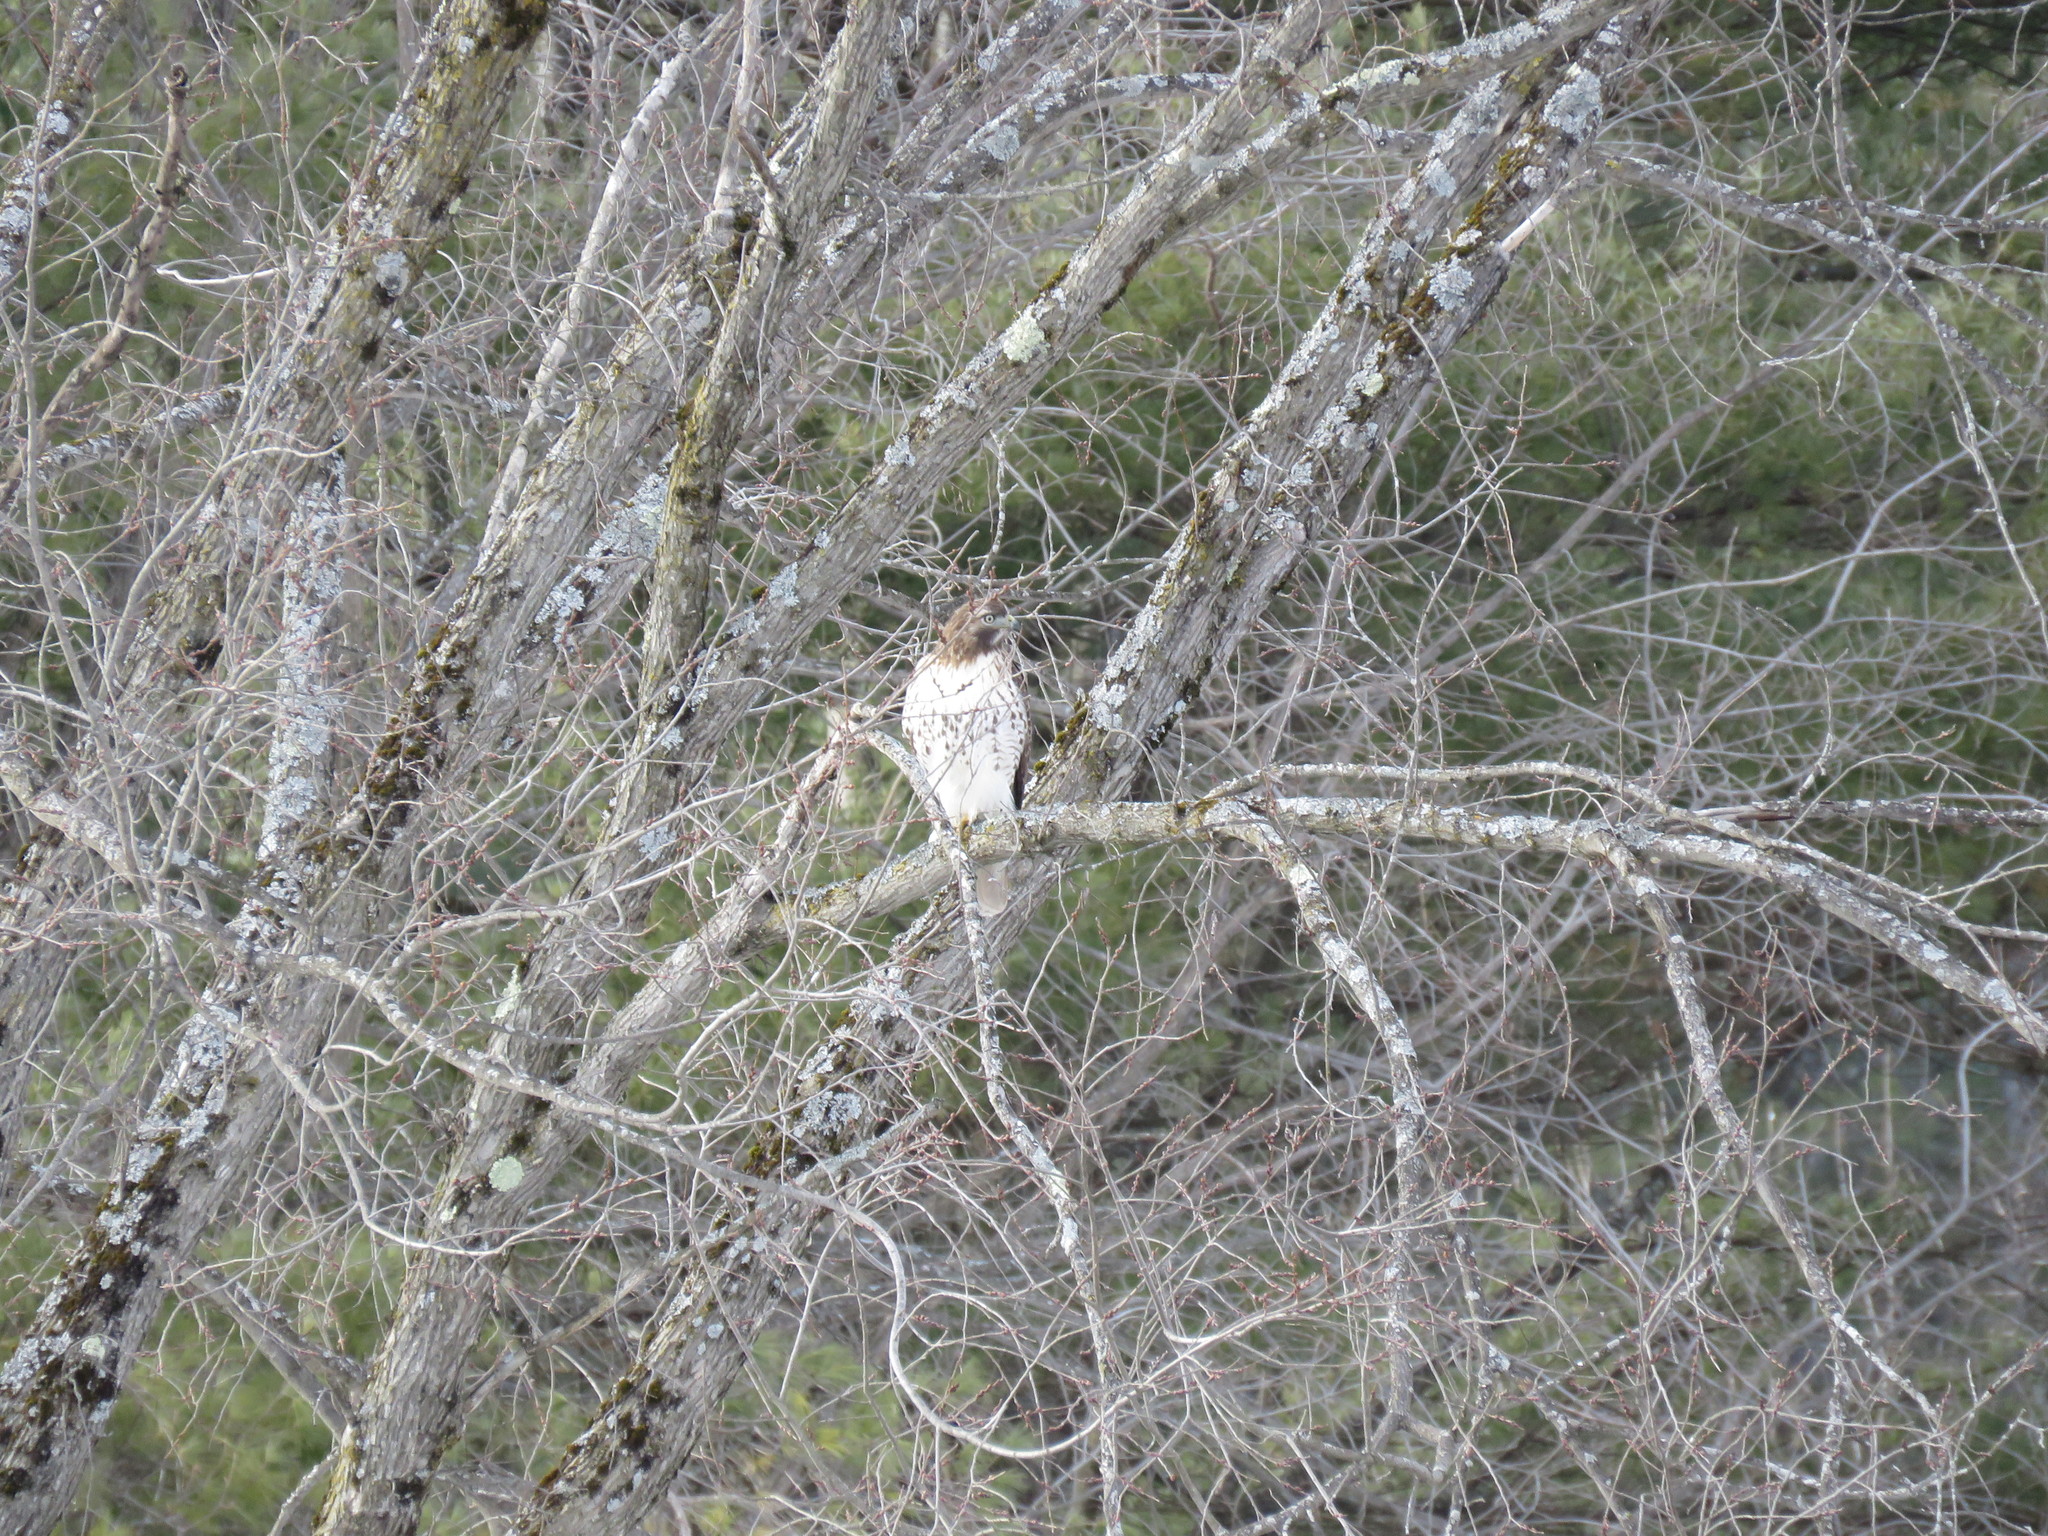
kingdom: Animalia
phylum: Chordata
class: Aves
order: Accipitriformes
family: Accipitridae
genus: Buteo
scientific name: Buteo jamaicensis
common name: Red-tailed hawk
